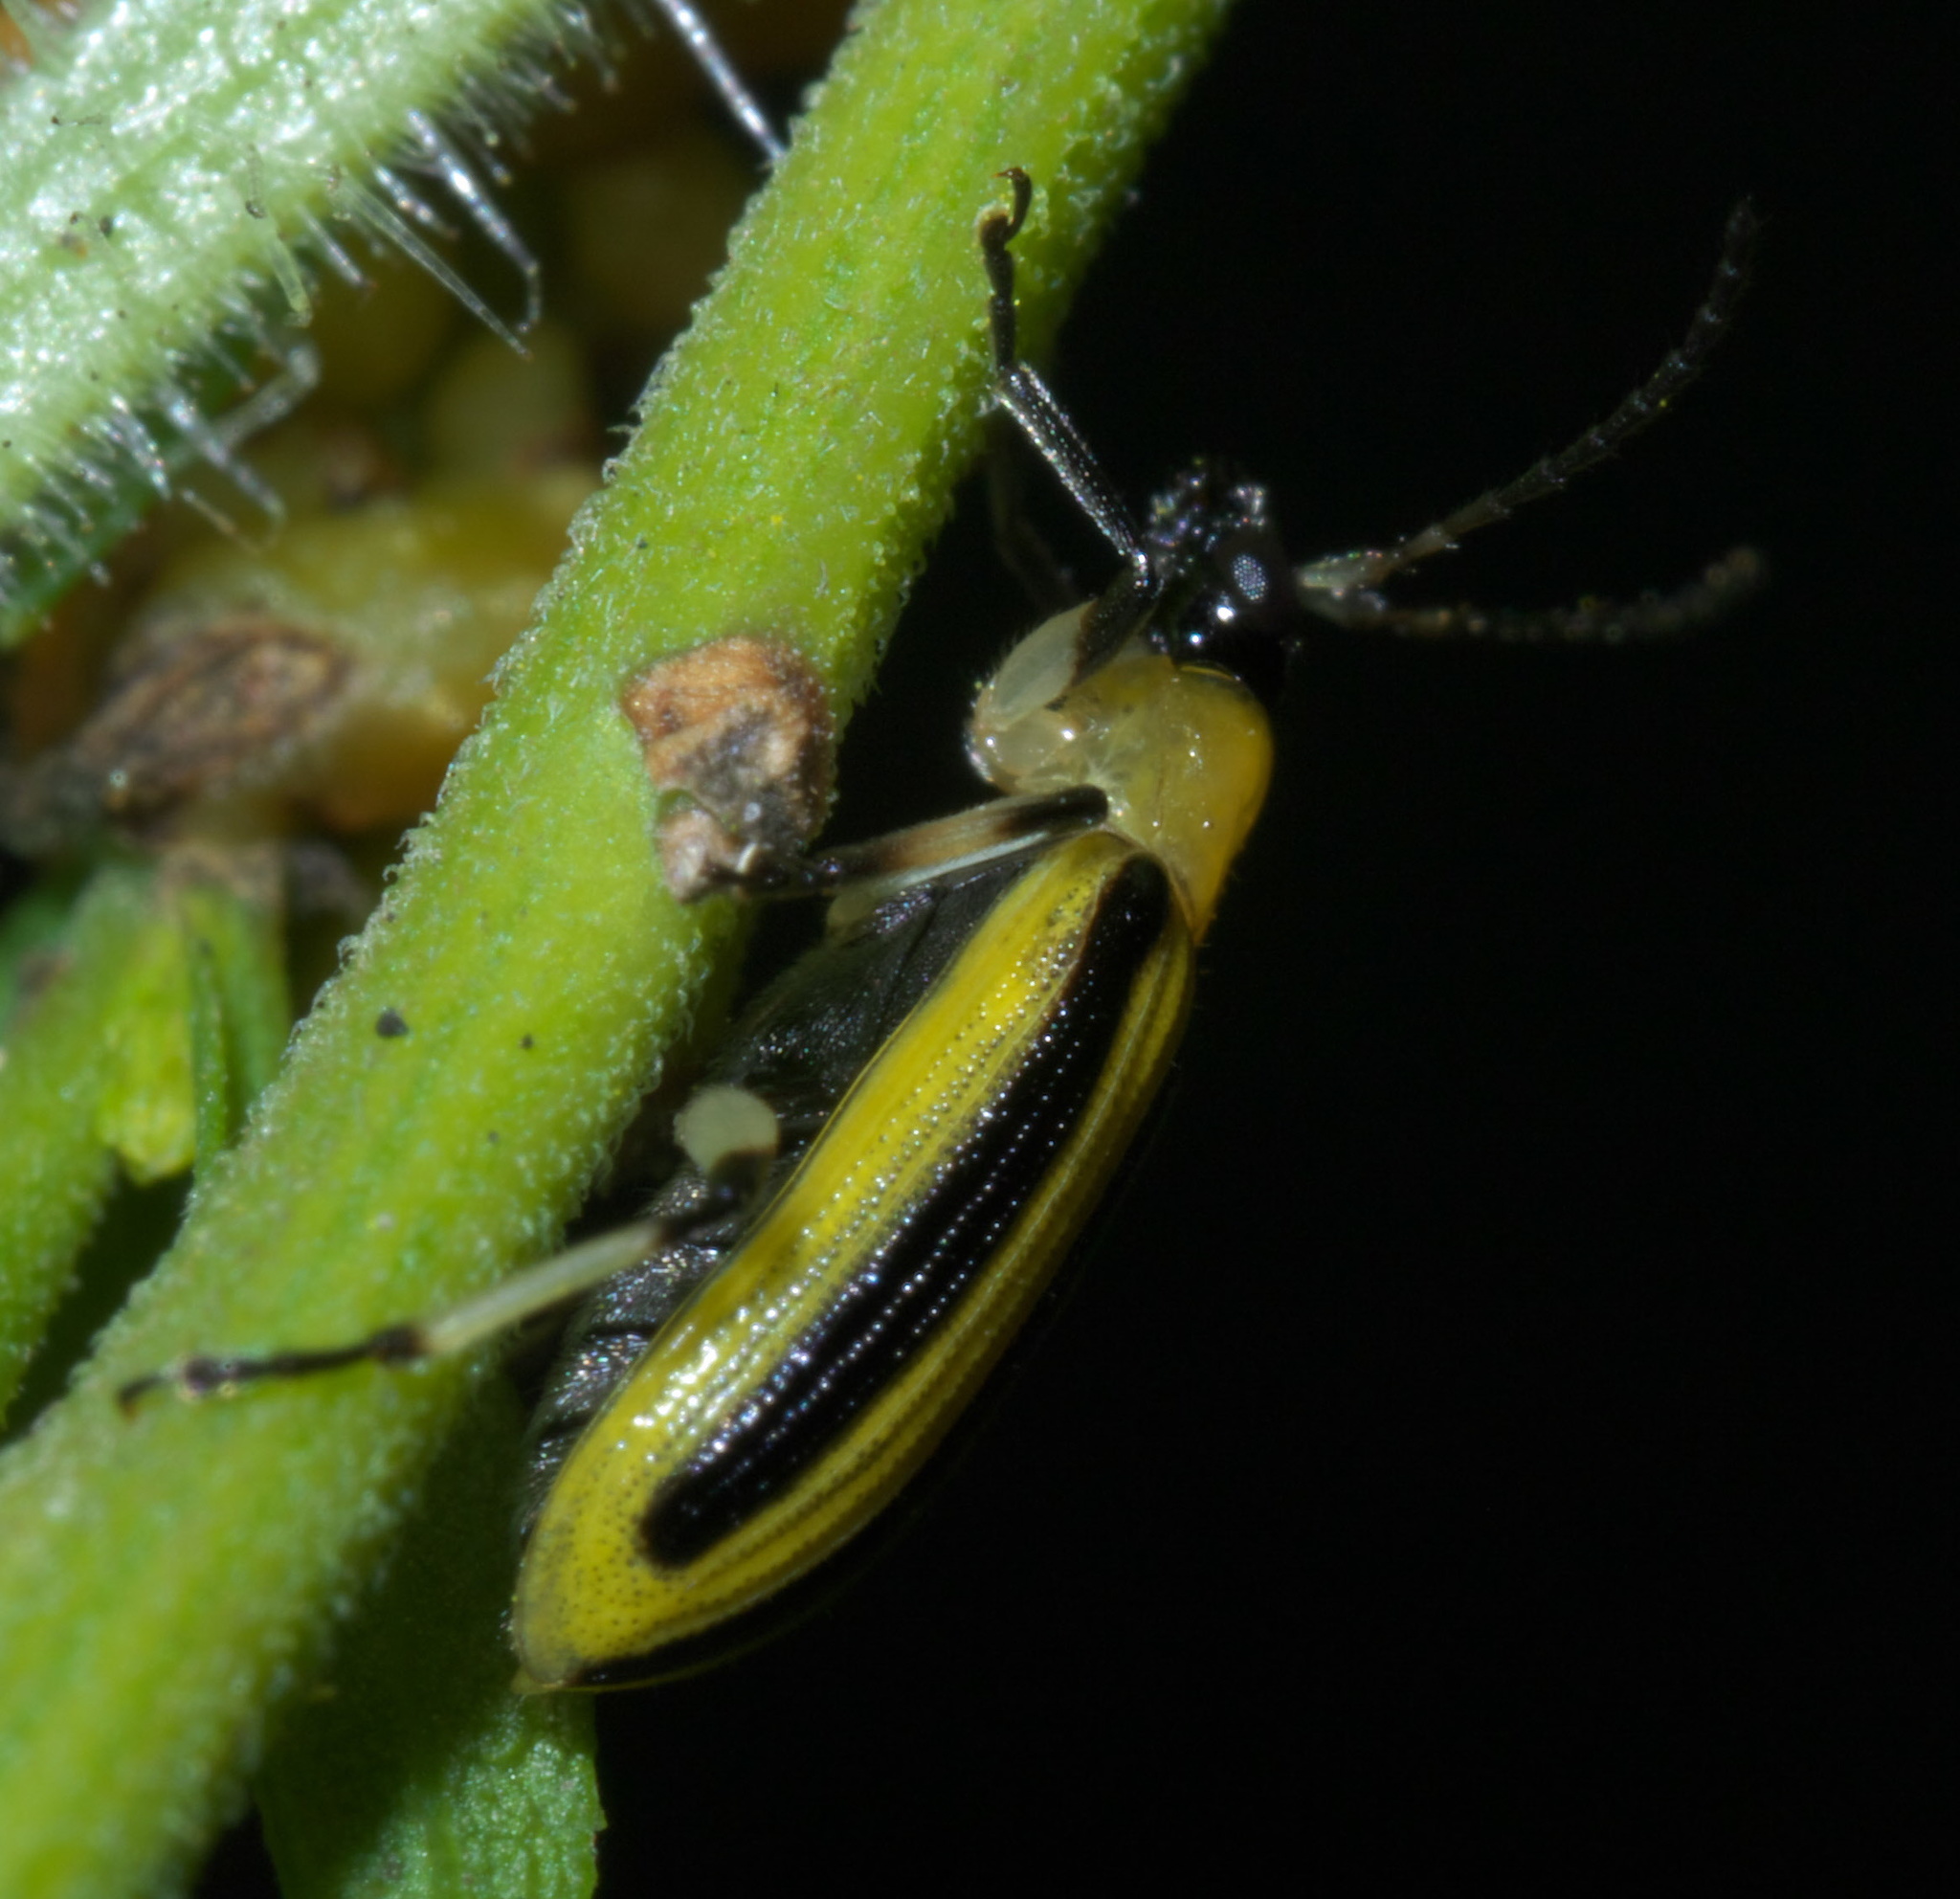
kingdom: Animalia
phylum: Arthropoda
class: Insecta
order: Coleoptera
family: Chrysomelidae
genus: Acalymma
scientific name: Acalymma vittatum
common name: Striped cucumber beetle
